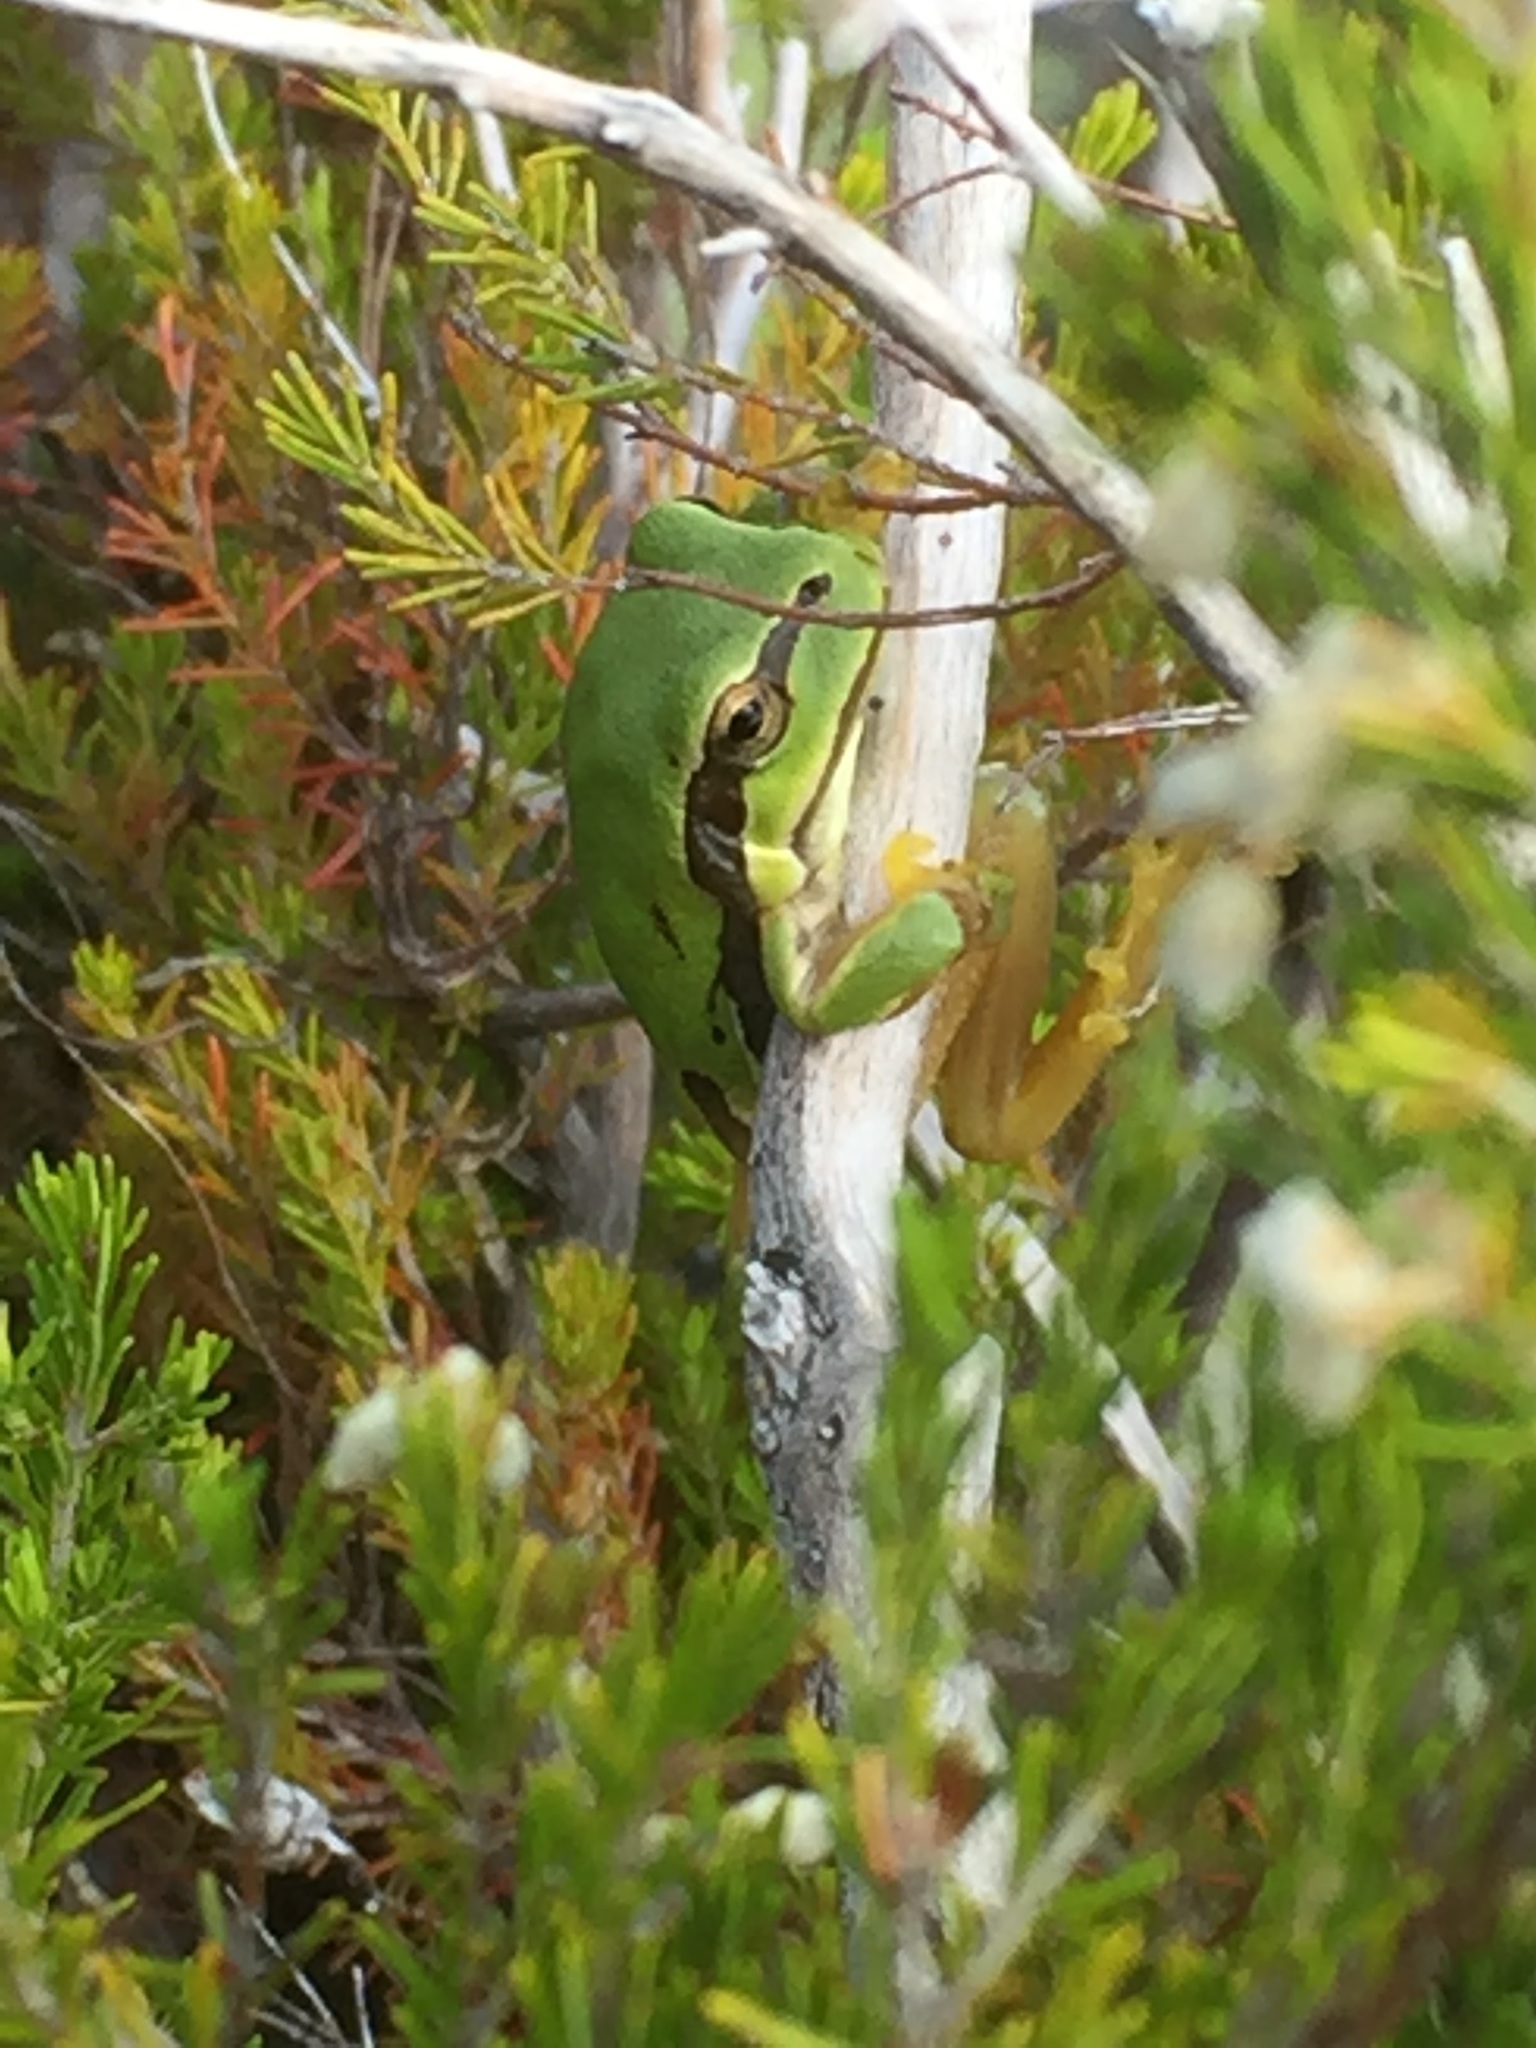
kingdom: Animalia
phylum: Chordata
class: Amphibia
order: Anura
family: Hylidae
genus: Hyla
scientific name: Hyla molleri
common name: Iberian tree frog
